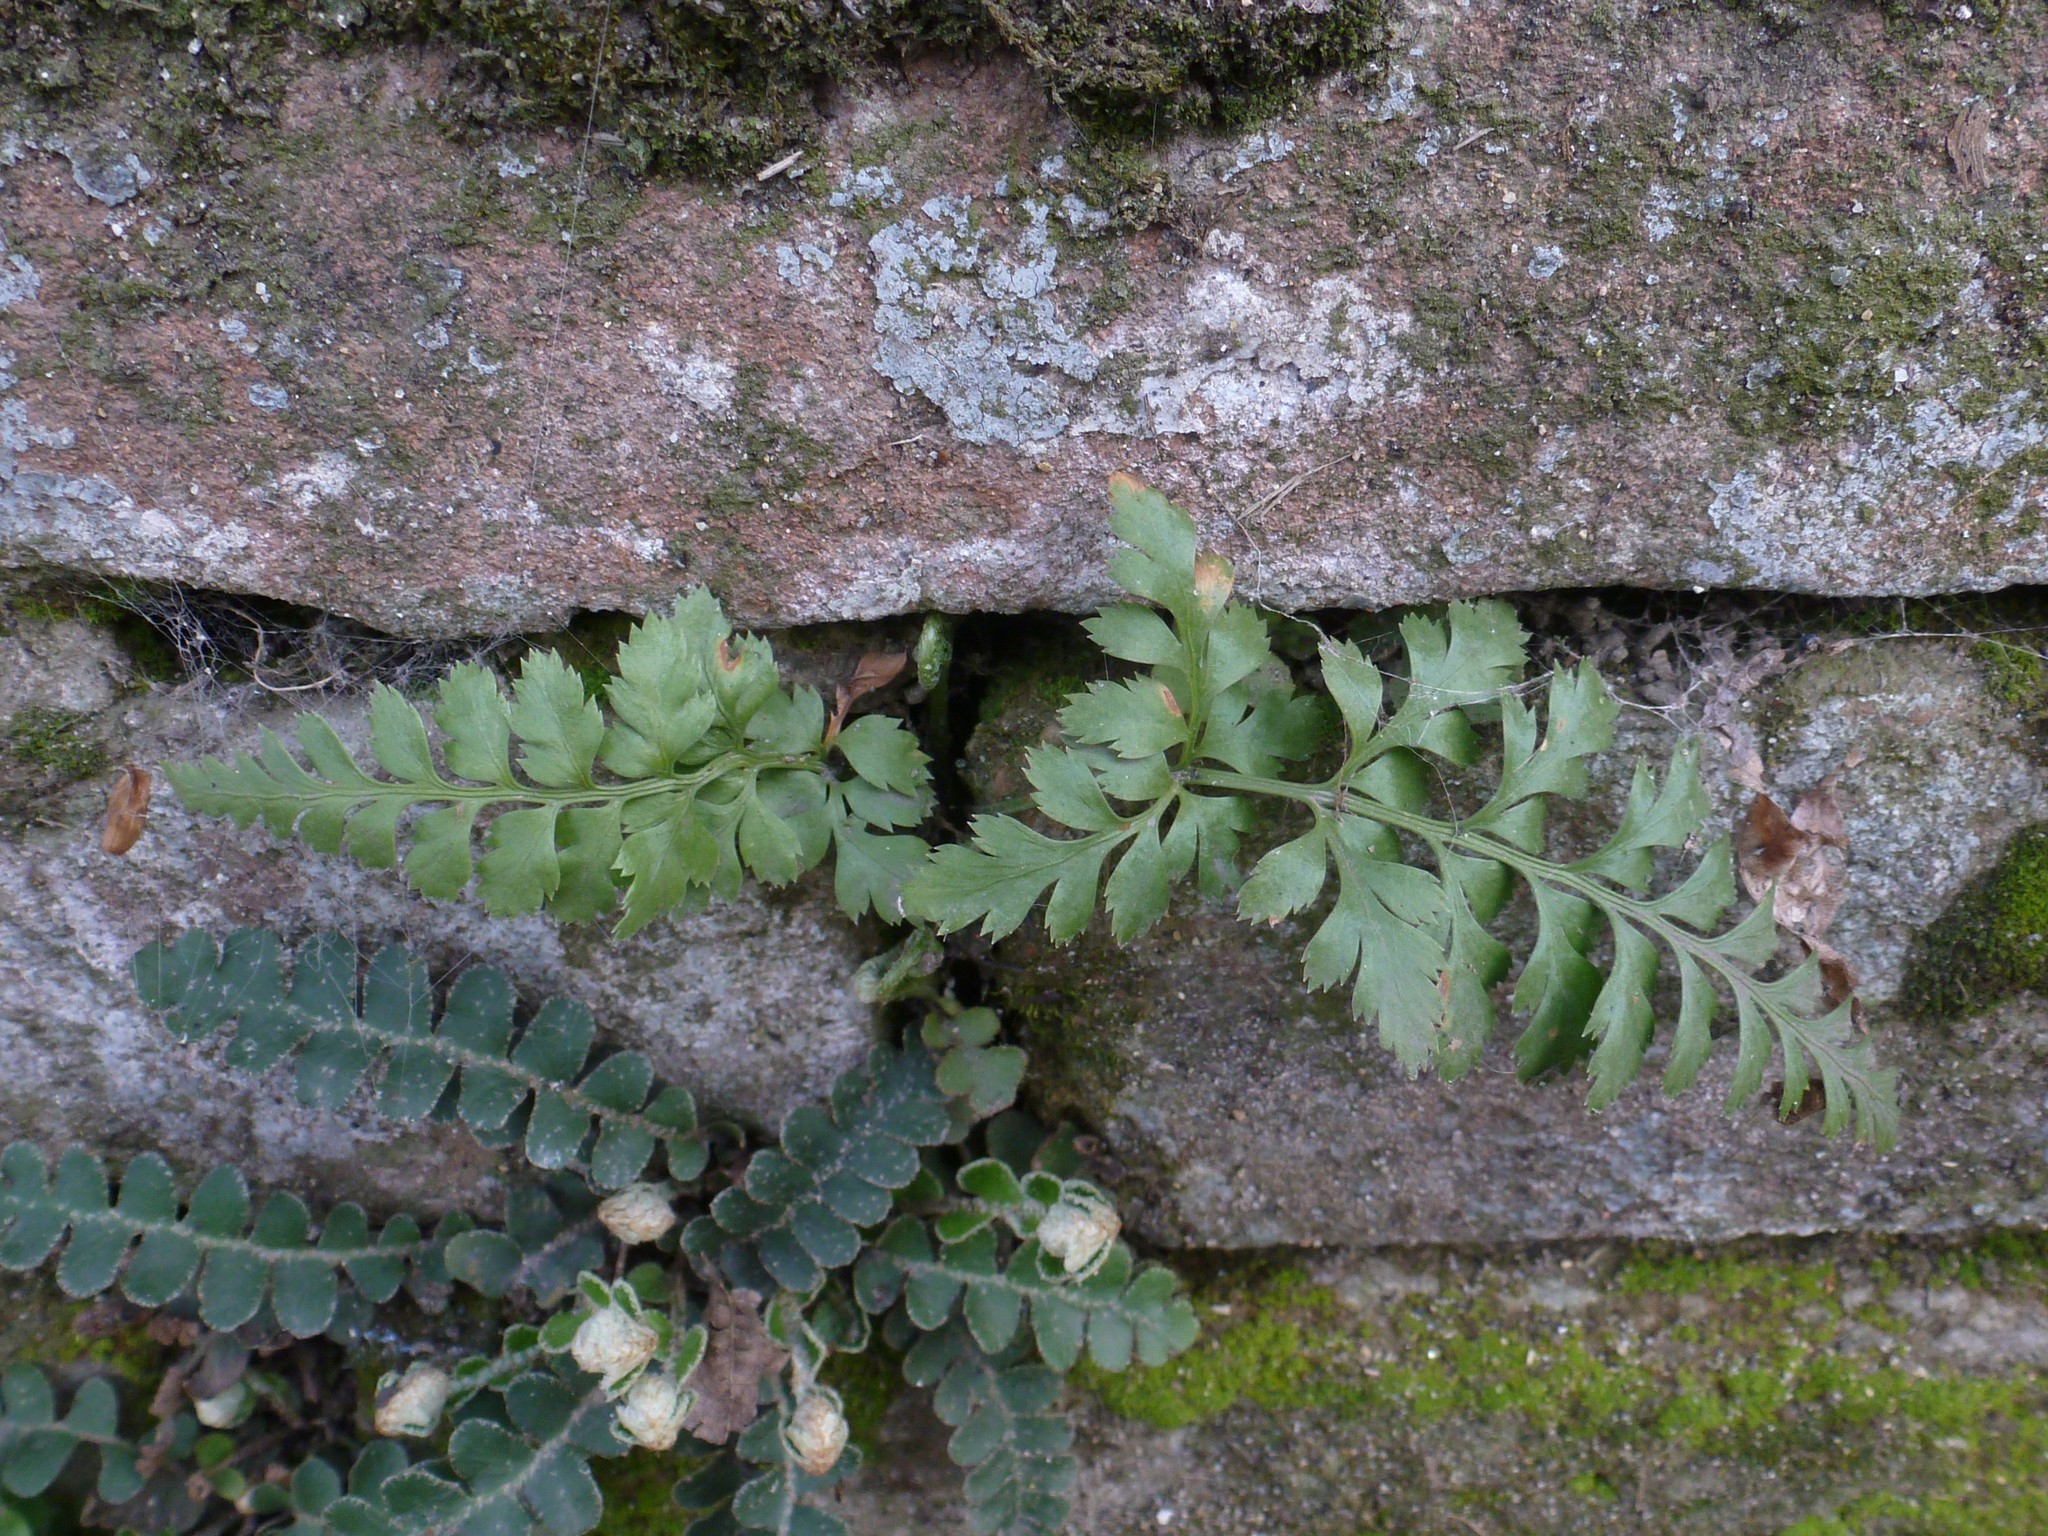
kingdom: Plantae
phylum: Tracheophyta
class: Polypodiopsida
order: Polypodiales
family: Aspleniaceae
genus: Asplenium
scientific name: Asplenium adiantum-nigrum
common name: Black spleenwort
